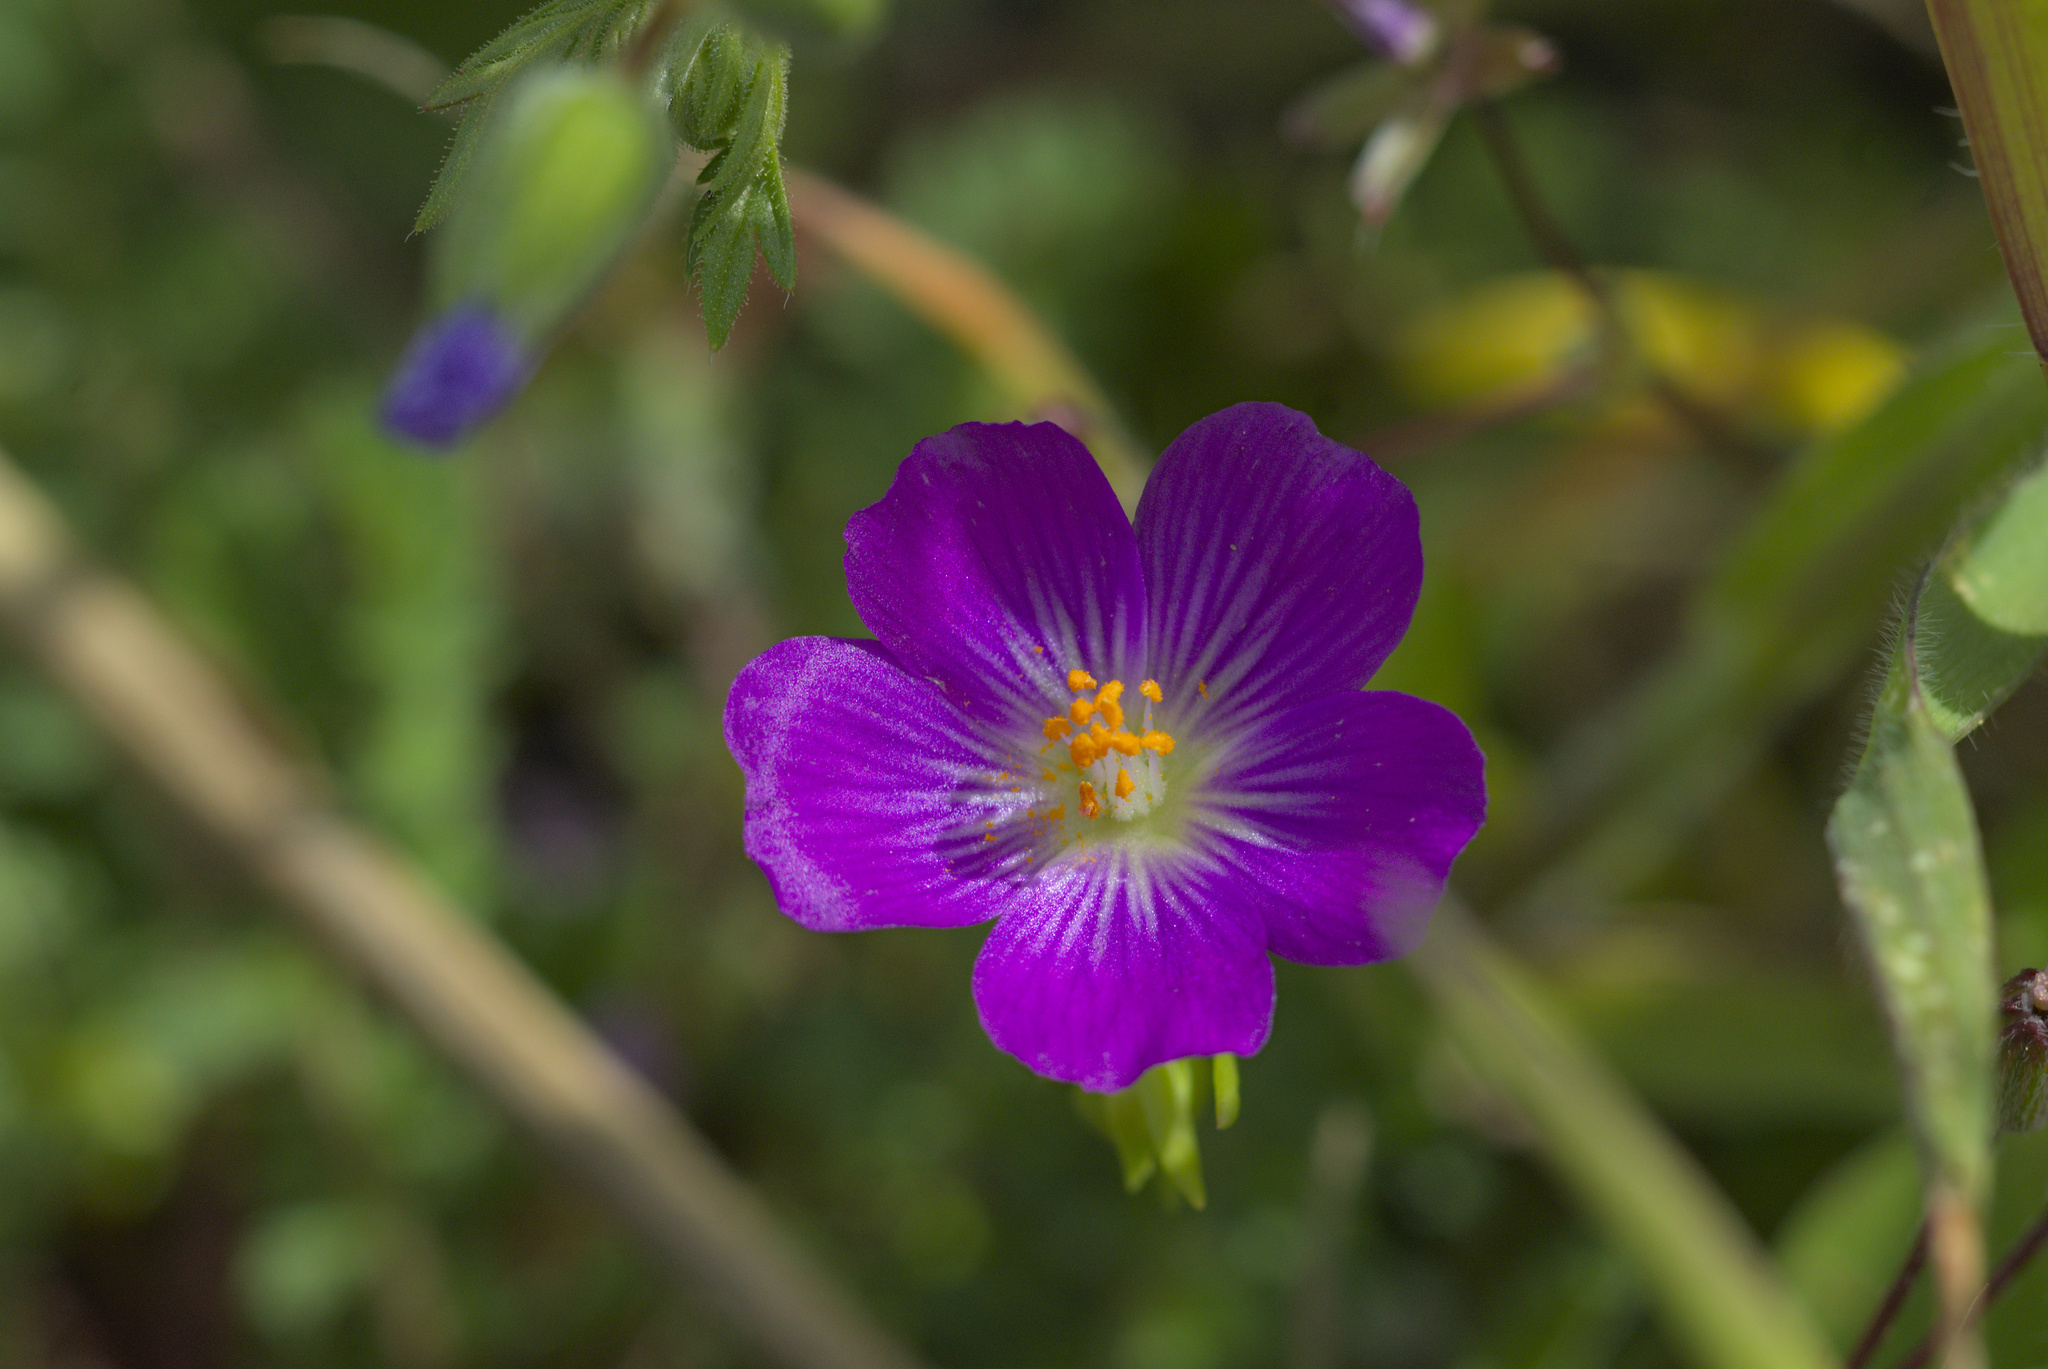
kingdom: Plantae
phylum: Tracheophyta
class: Magnoliopsida
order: Caryophyllales
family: Montiaceae
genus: Calandrinia
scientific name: Calandrinia menziesii
